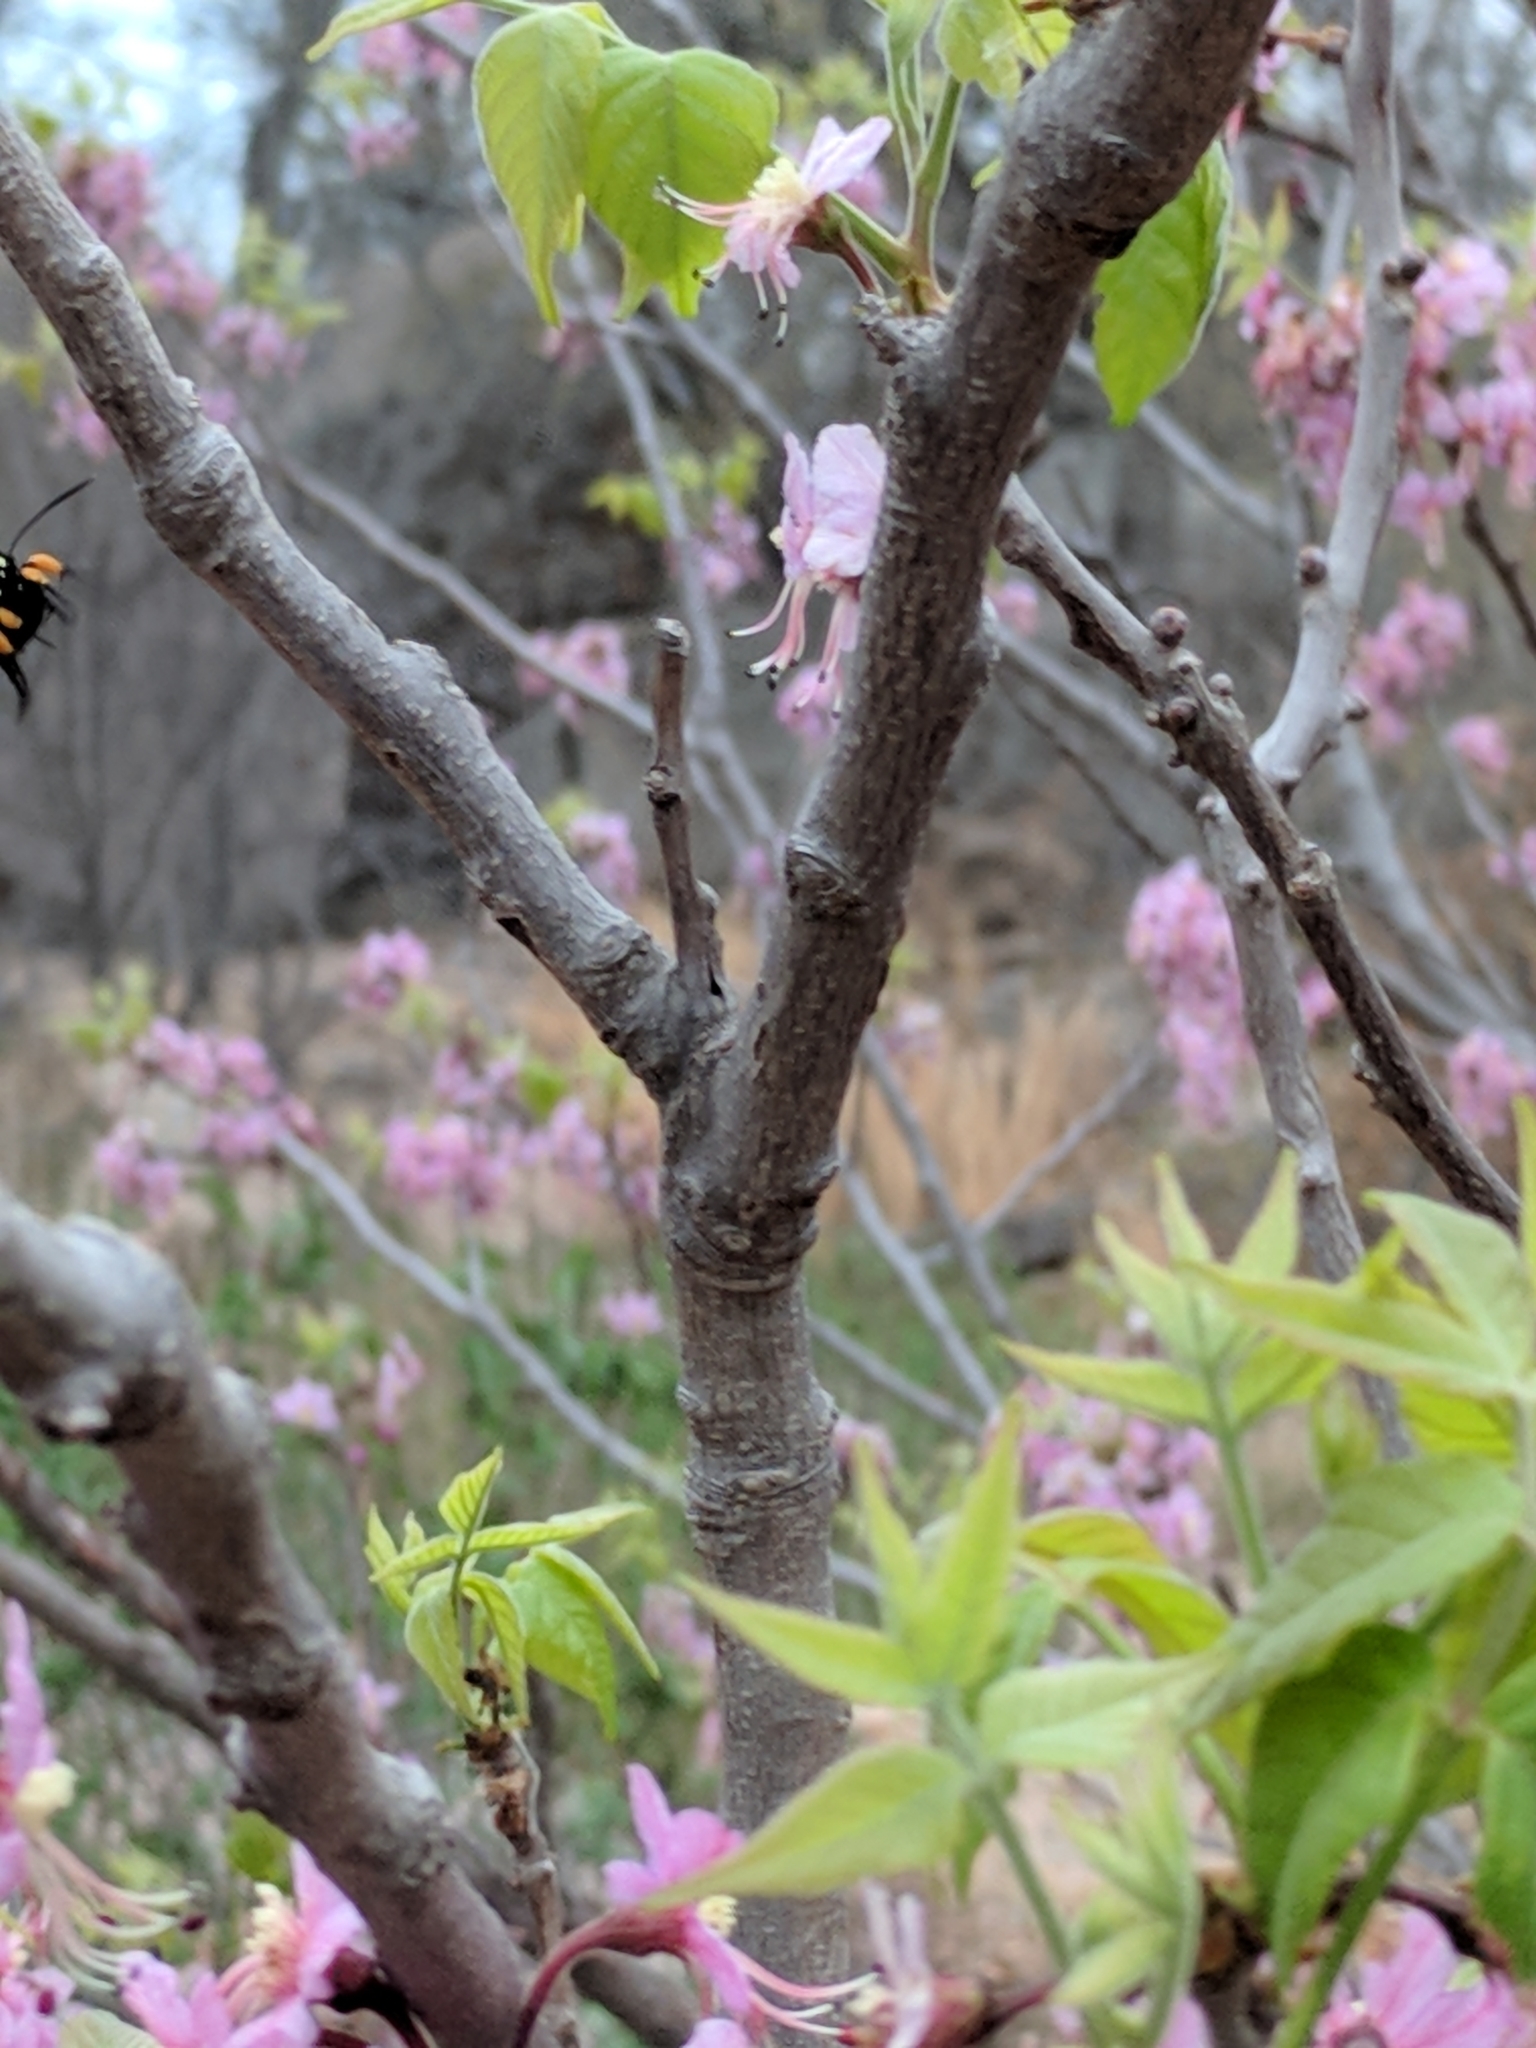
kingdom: Animalia
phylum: Arthropoda
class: Insecta
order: Lepidoptera
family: Noctuidae
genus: Alypia
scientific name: Alypia disparata
